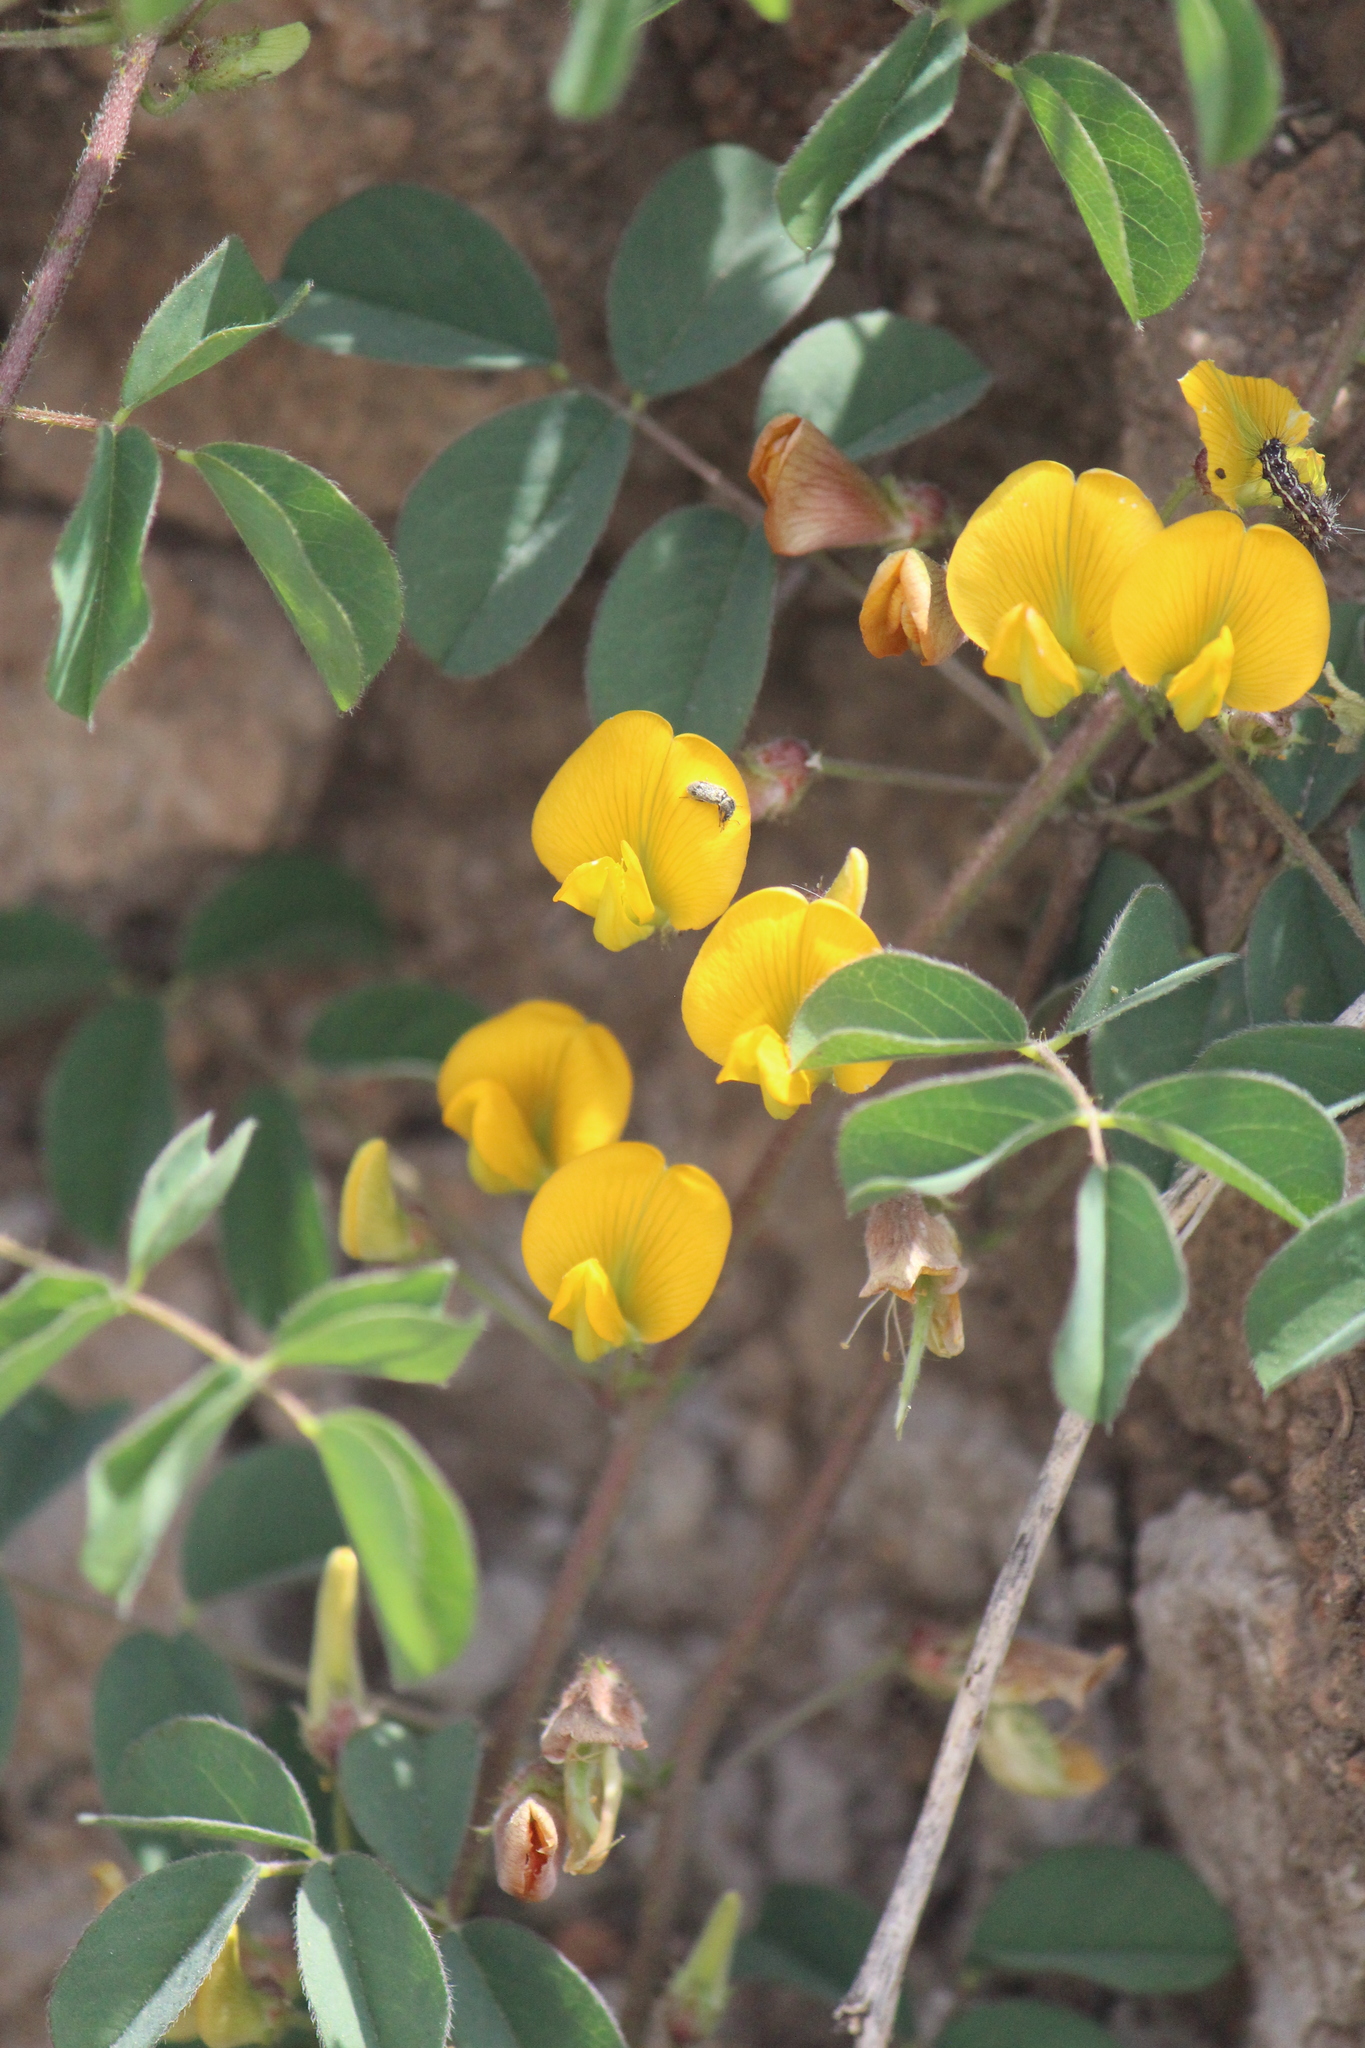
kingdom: Plantae
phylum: Tracheophyta
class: Magnoliopsida
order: Fabales
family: Fabaceae
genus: Crotalaria
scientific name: Crotalaria pumila
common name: Low rattlebox
